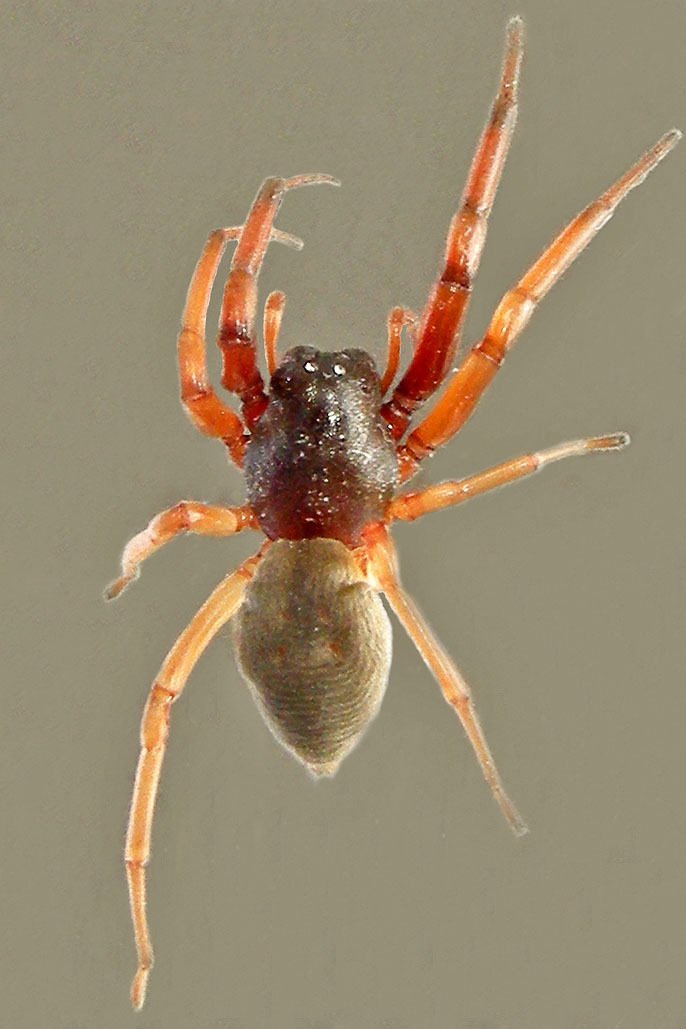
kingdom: Animalia
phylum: Arthropoda
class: Arachnida
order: Araneae
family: Trachelidae
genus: Trachelas
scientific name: Trachelas tranquillus
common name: Broad-faced sac spider
